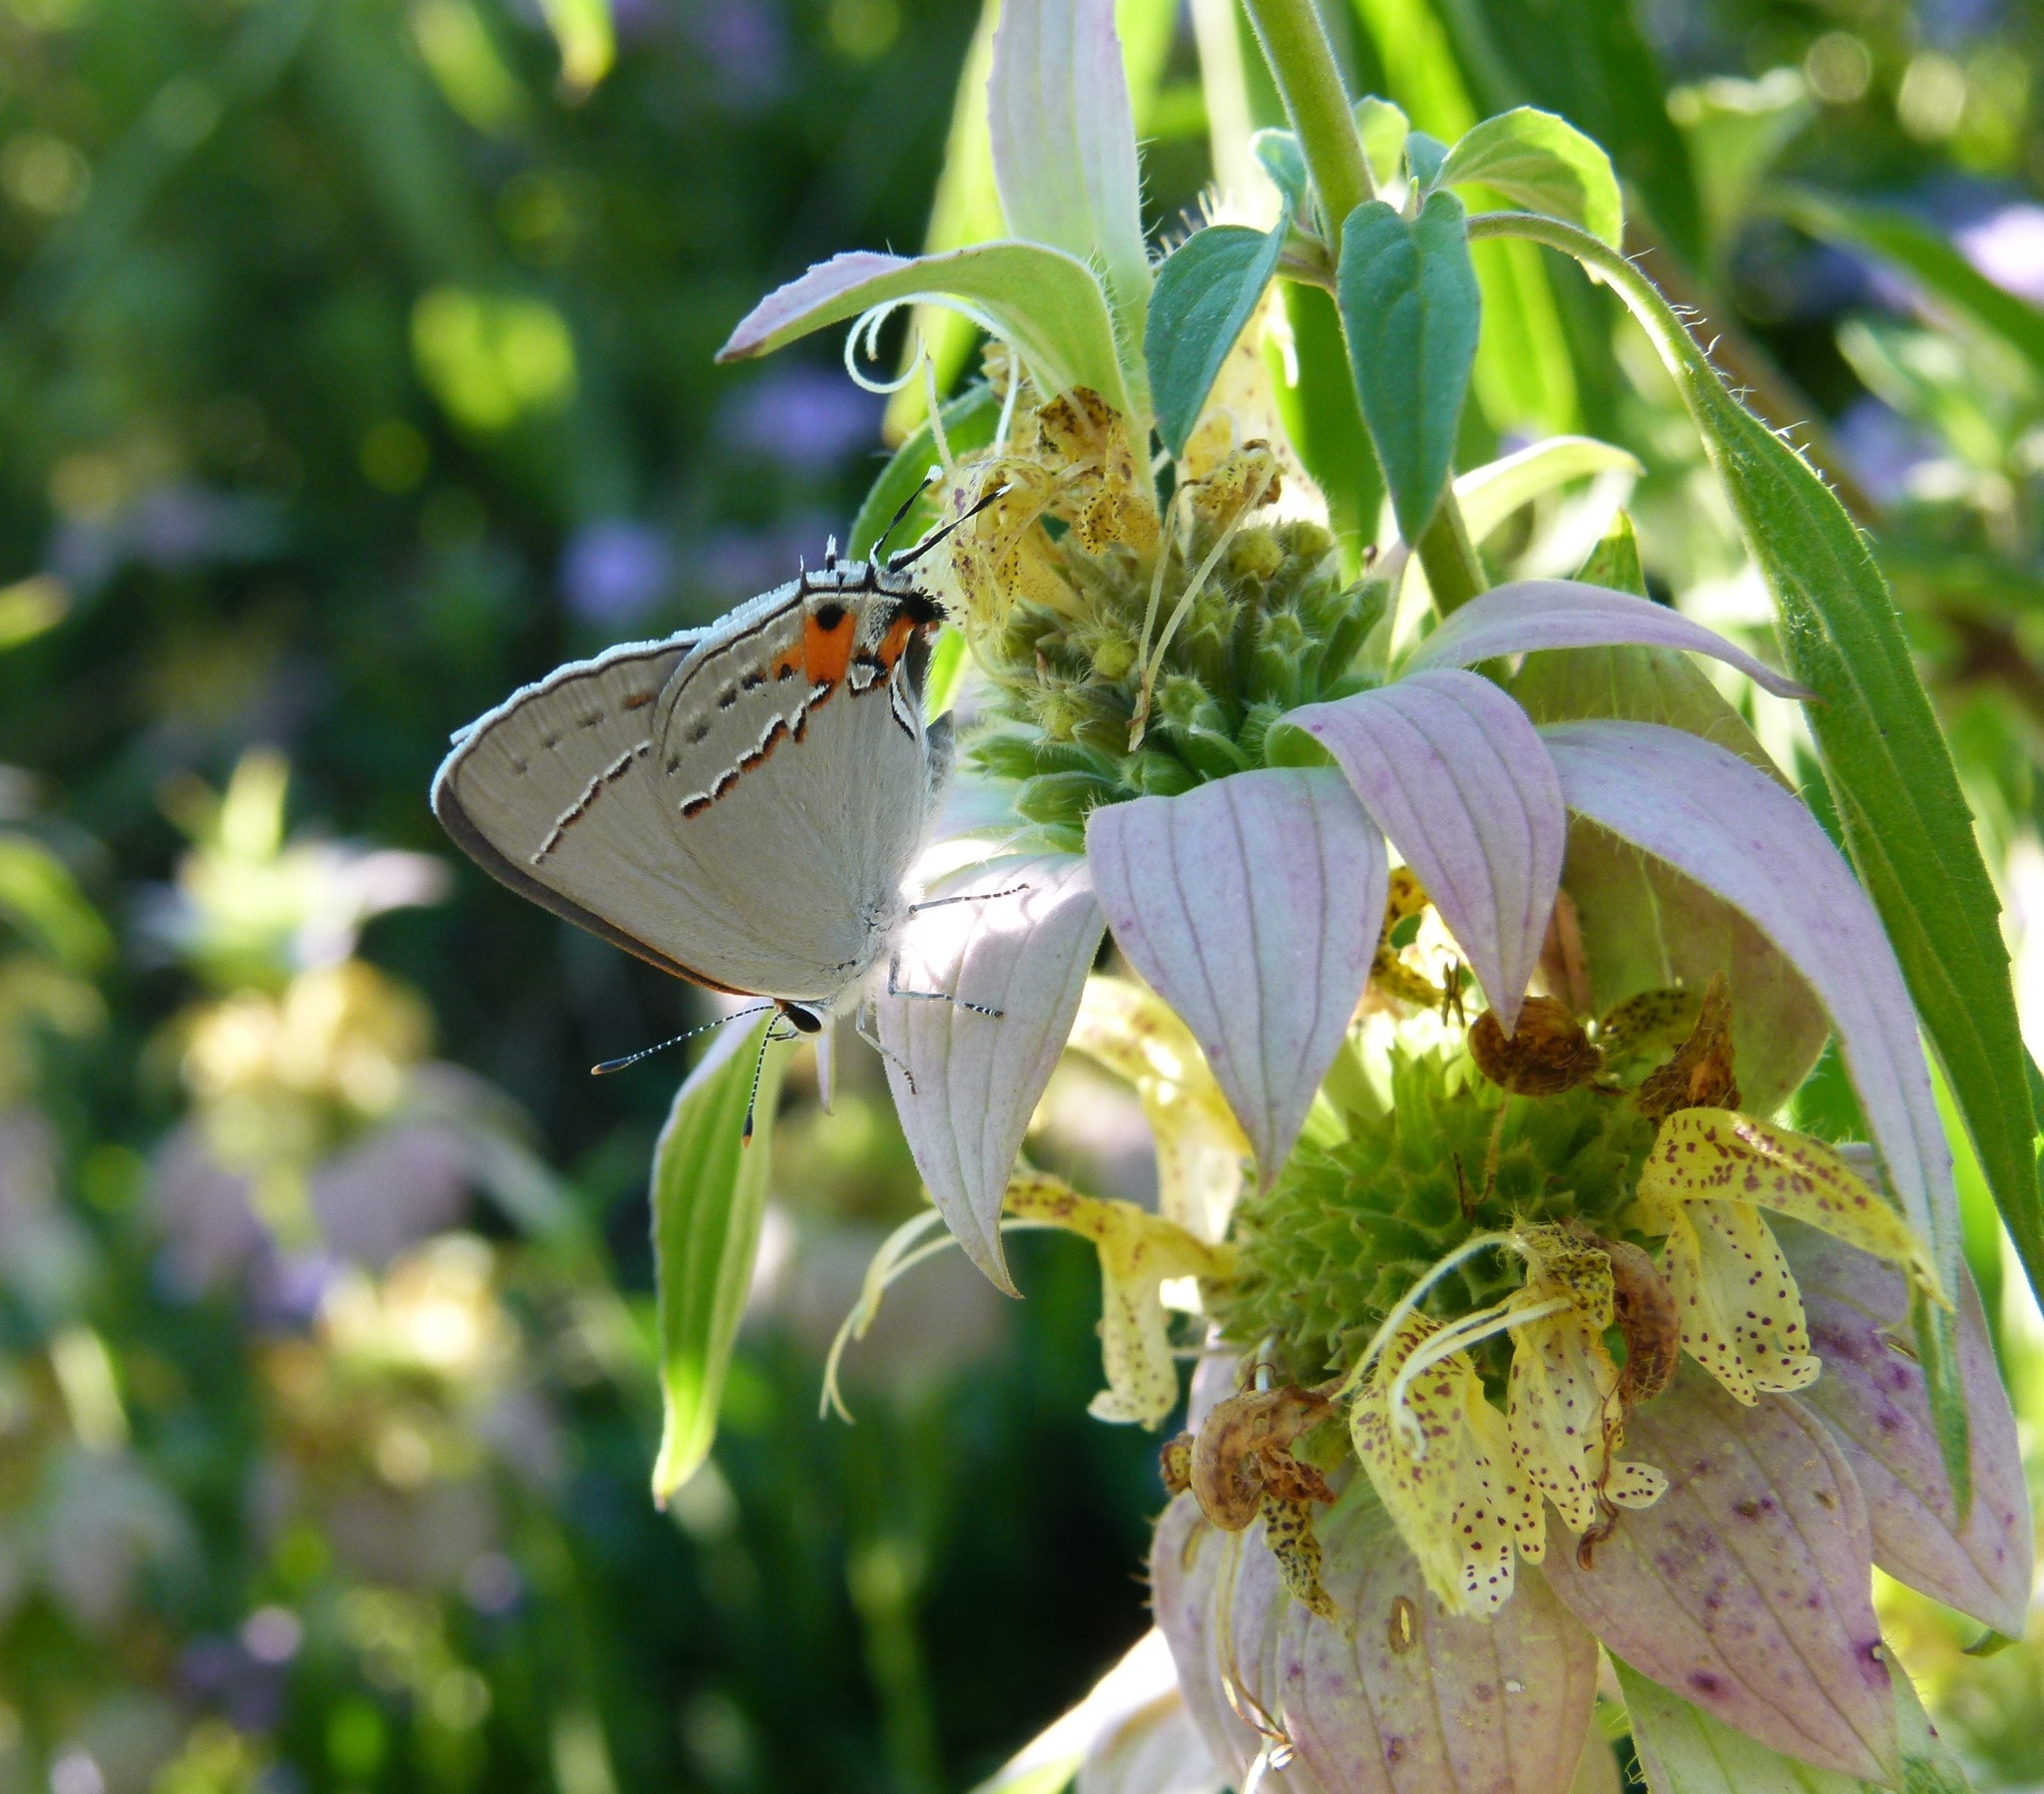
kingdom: Animalia
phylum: Arthropoda
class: Insecta
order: Lepidoptera
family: Lycaenidae
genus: Strymon
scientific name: Strymon melinus
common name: Gray hairstreak
